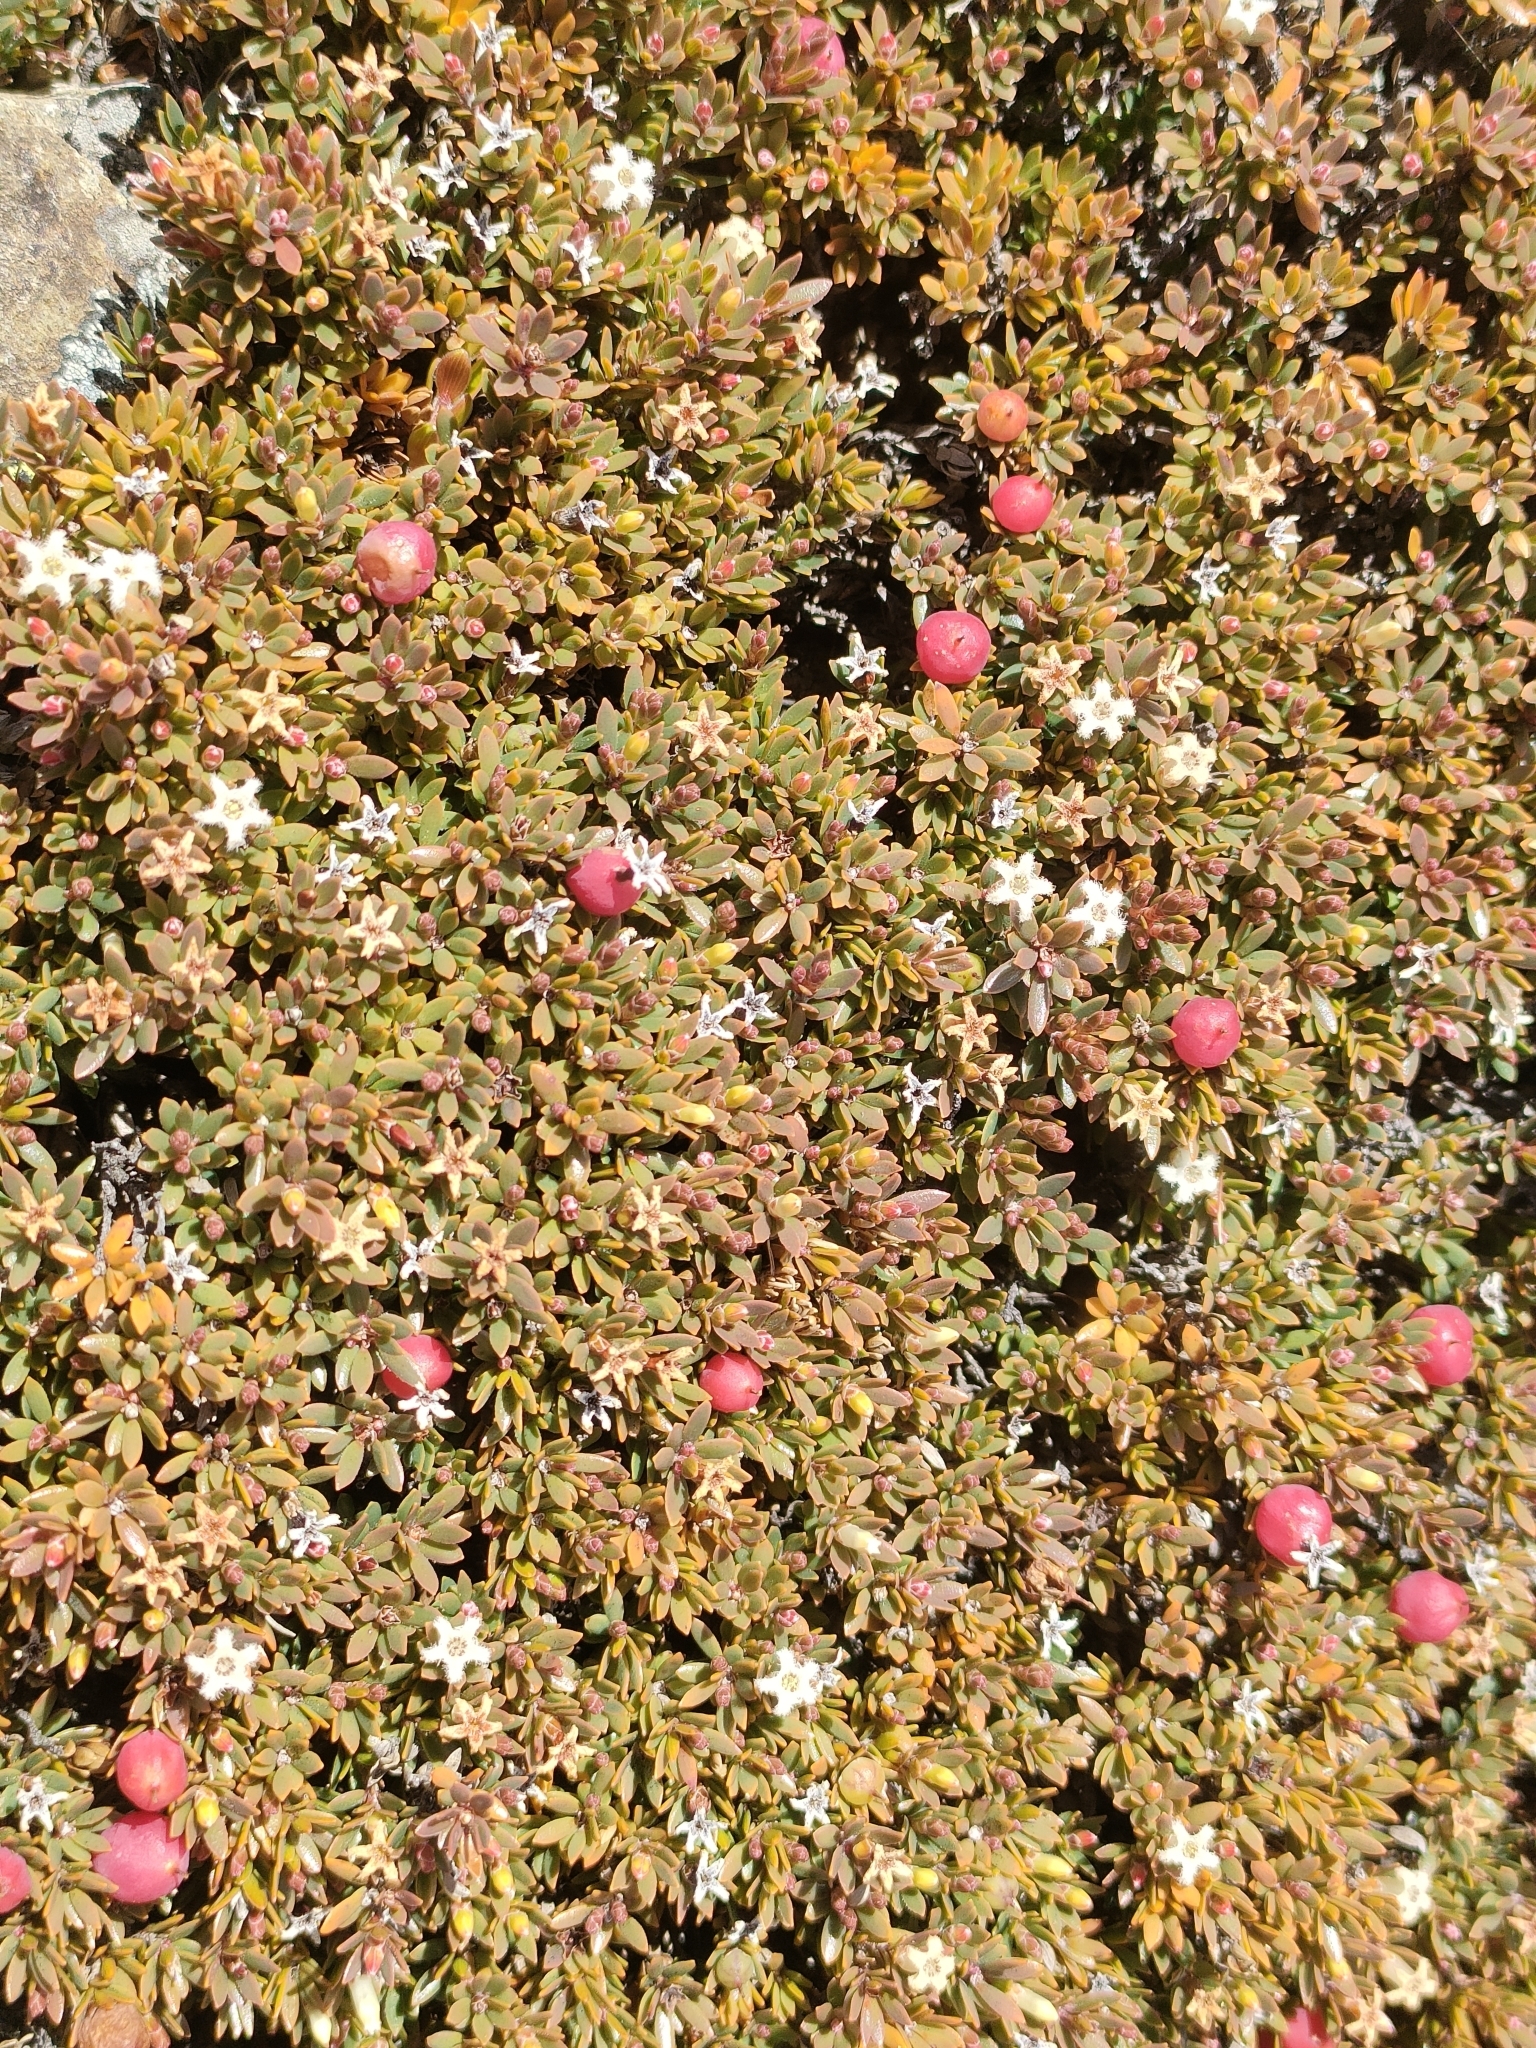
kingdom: Plantae
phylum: Tracheophyta
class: Magnoliopsida
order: Ericales
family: Ericaceae
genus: Pentachondra
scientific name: Pentachondra pumila
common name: Carpet-heath
